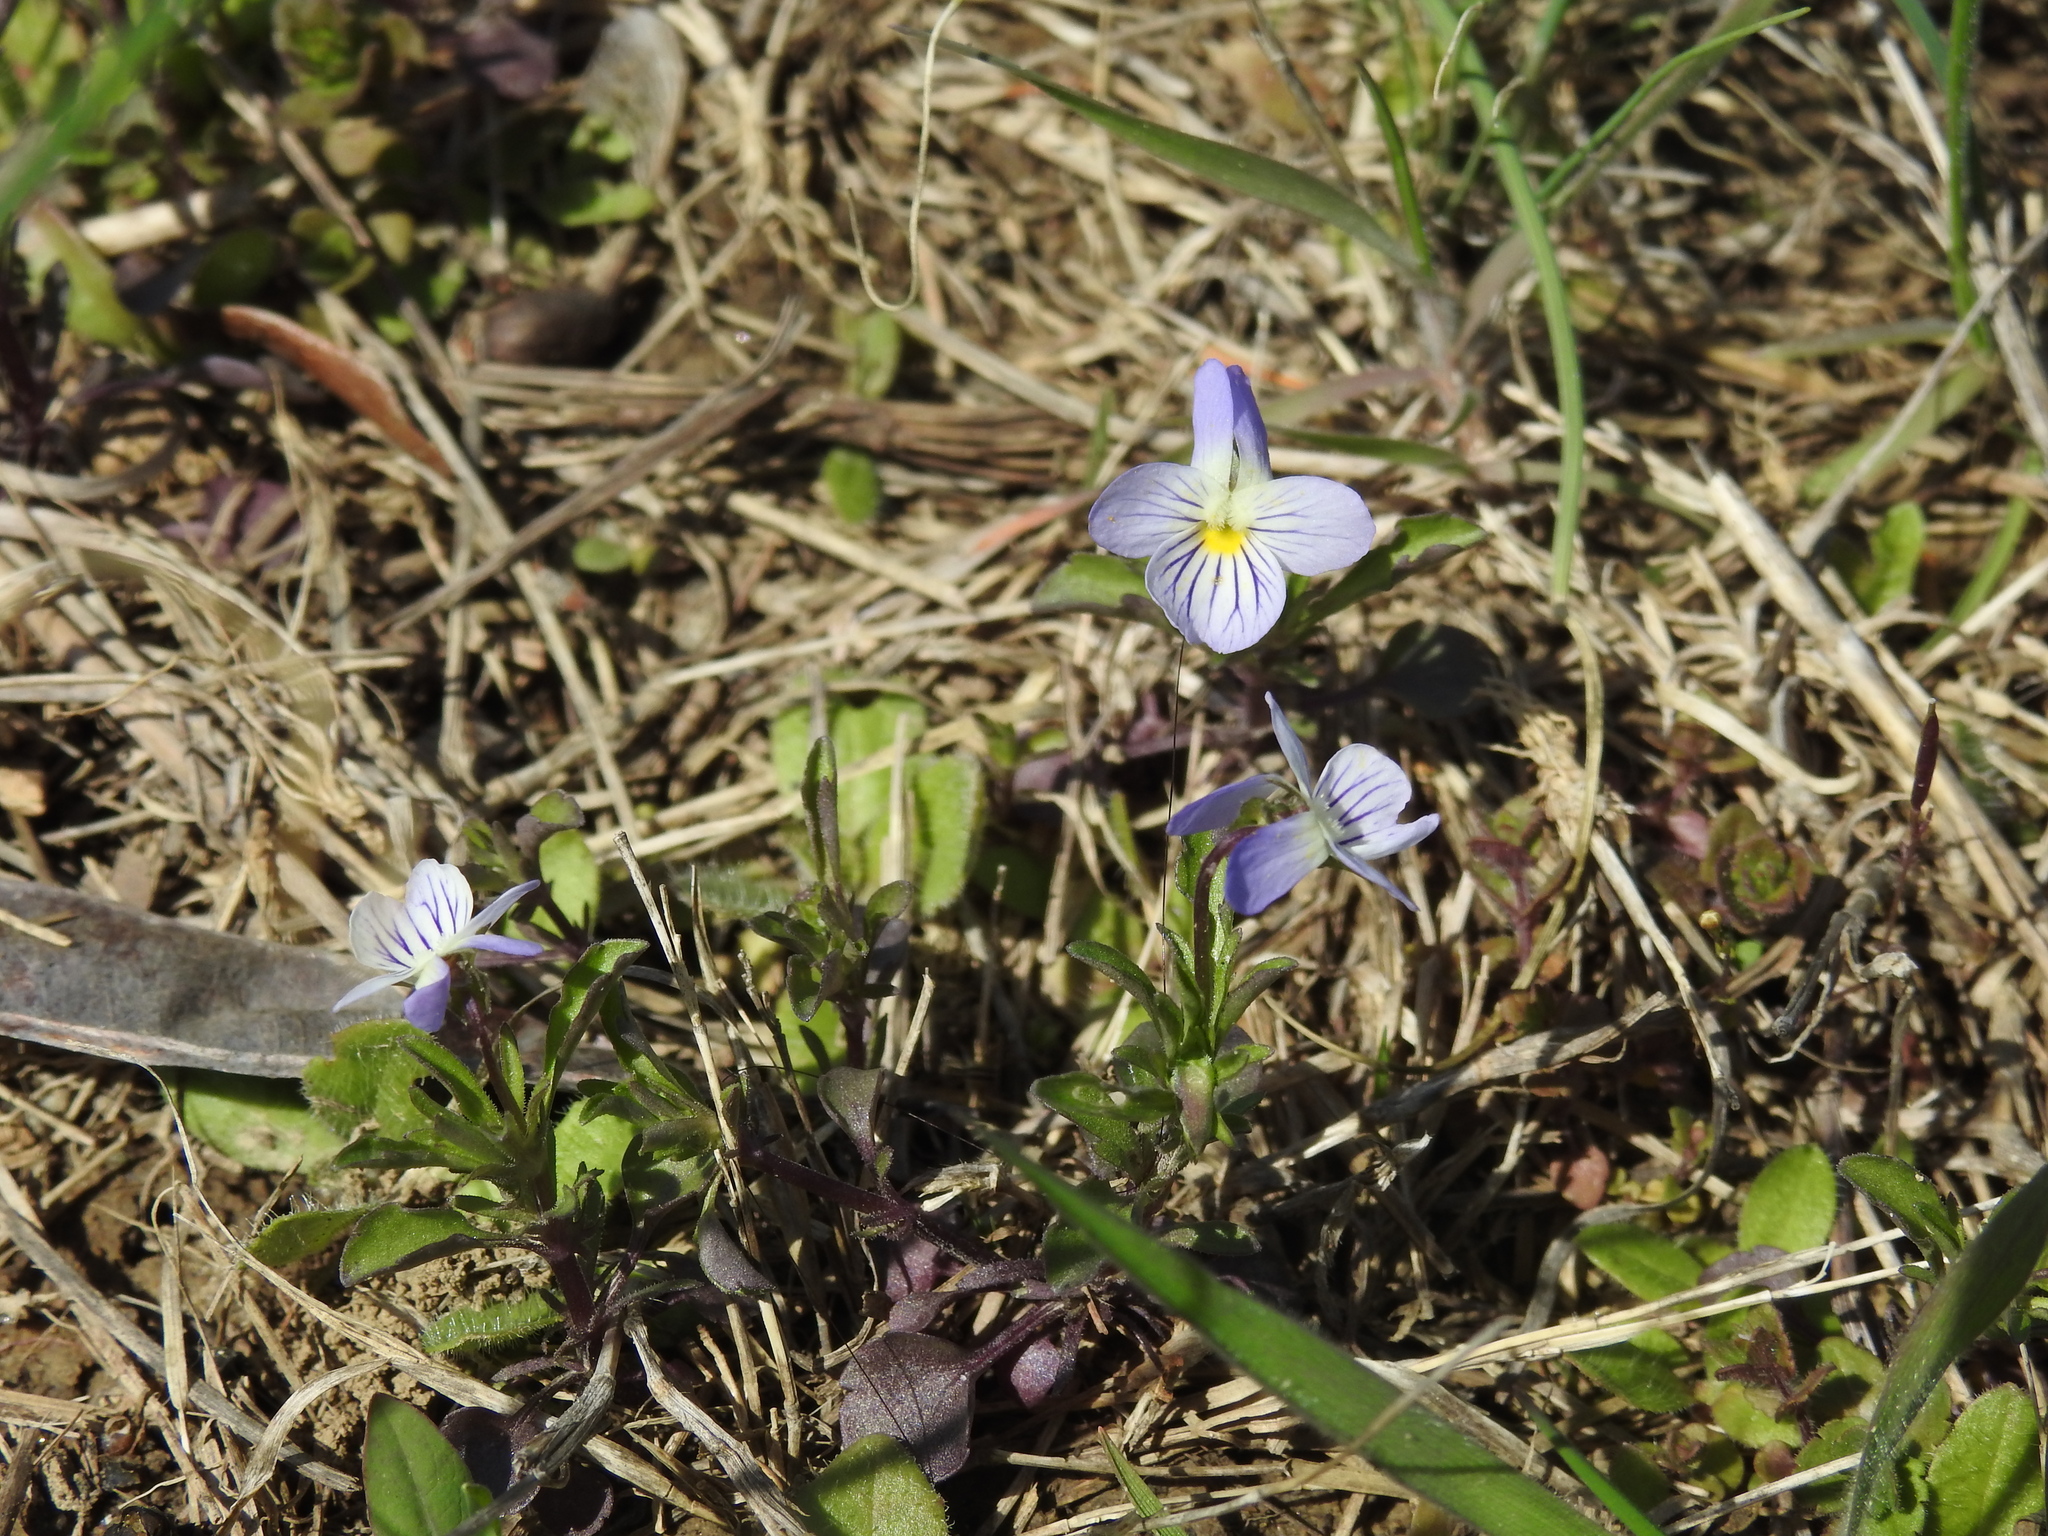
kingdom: Plantae
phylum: Tracheophyta
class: Magnoliopsida
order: Malpighiales
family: Violaceae
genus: Viola
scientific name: Viola rafinesquei
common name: American field pansy
